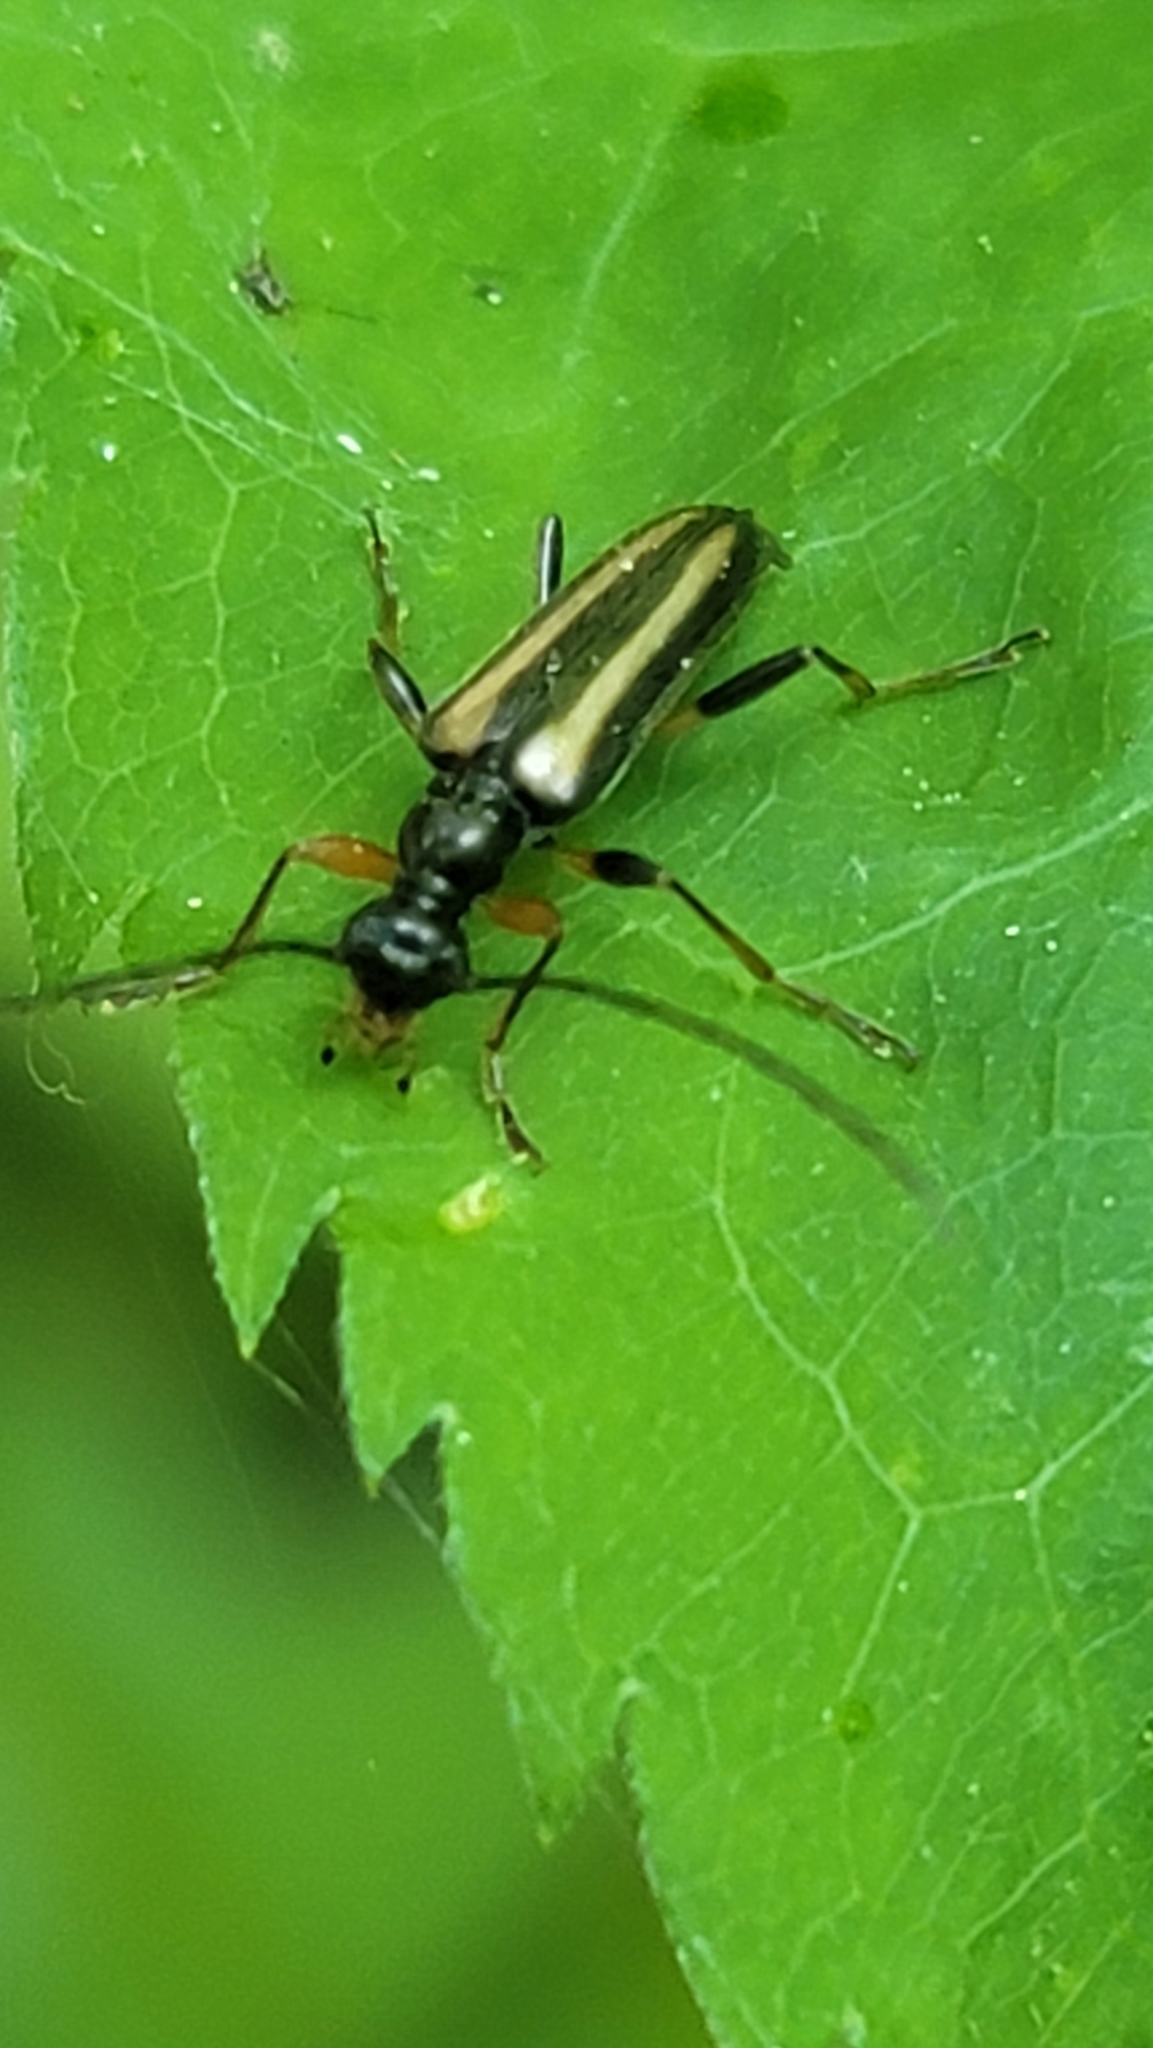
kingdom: Animalia
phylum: Arthropoda
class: Insecta
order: Coleoptera
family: Cerambycidae
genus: Pidonia
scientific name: Pidonia ruficollis
